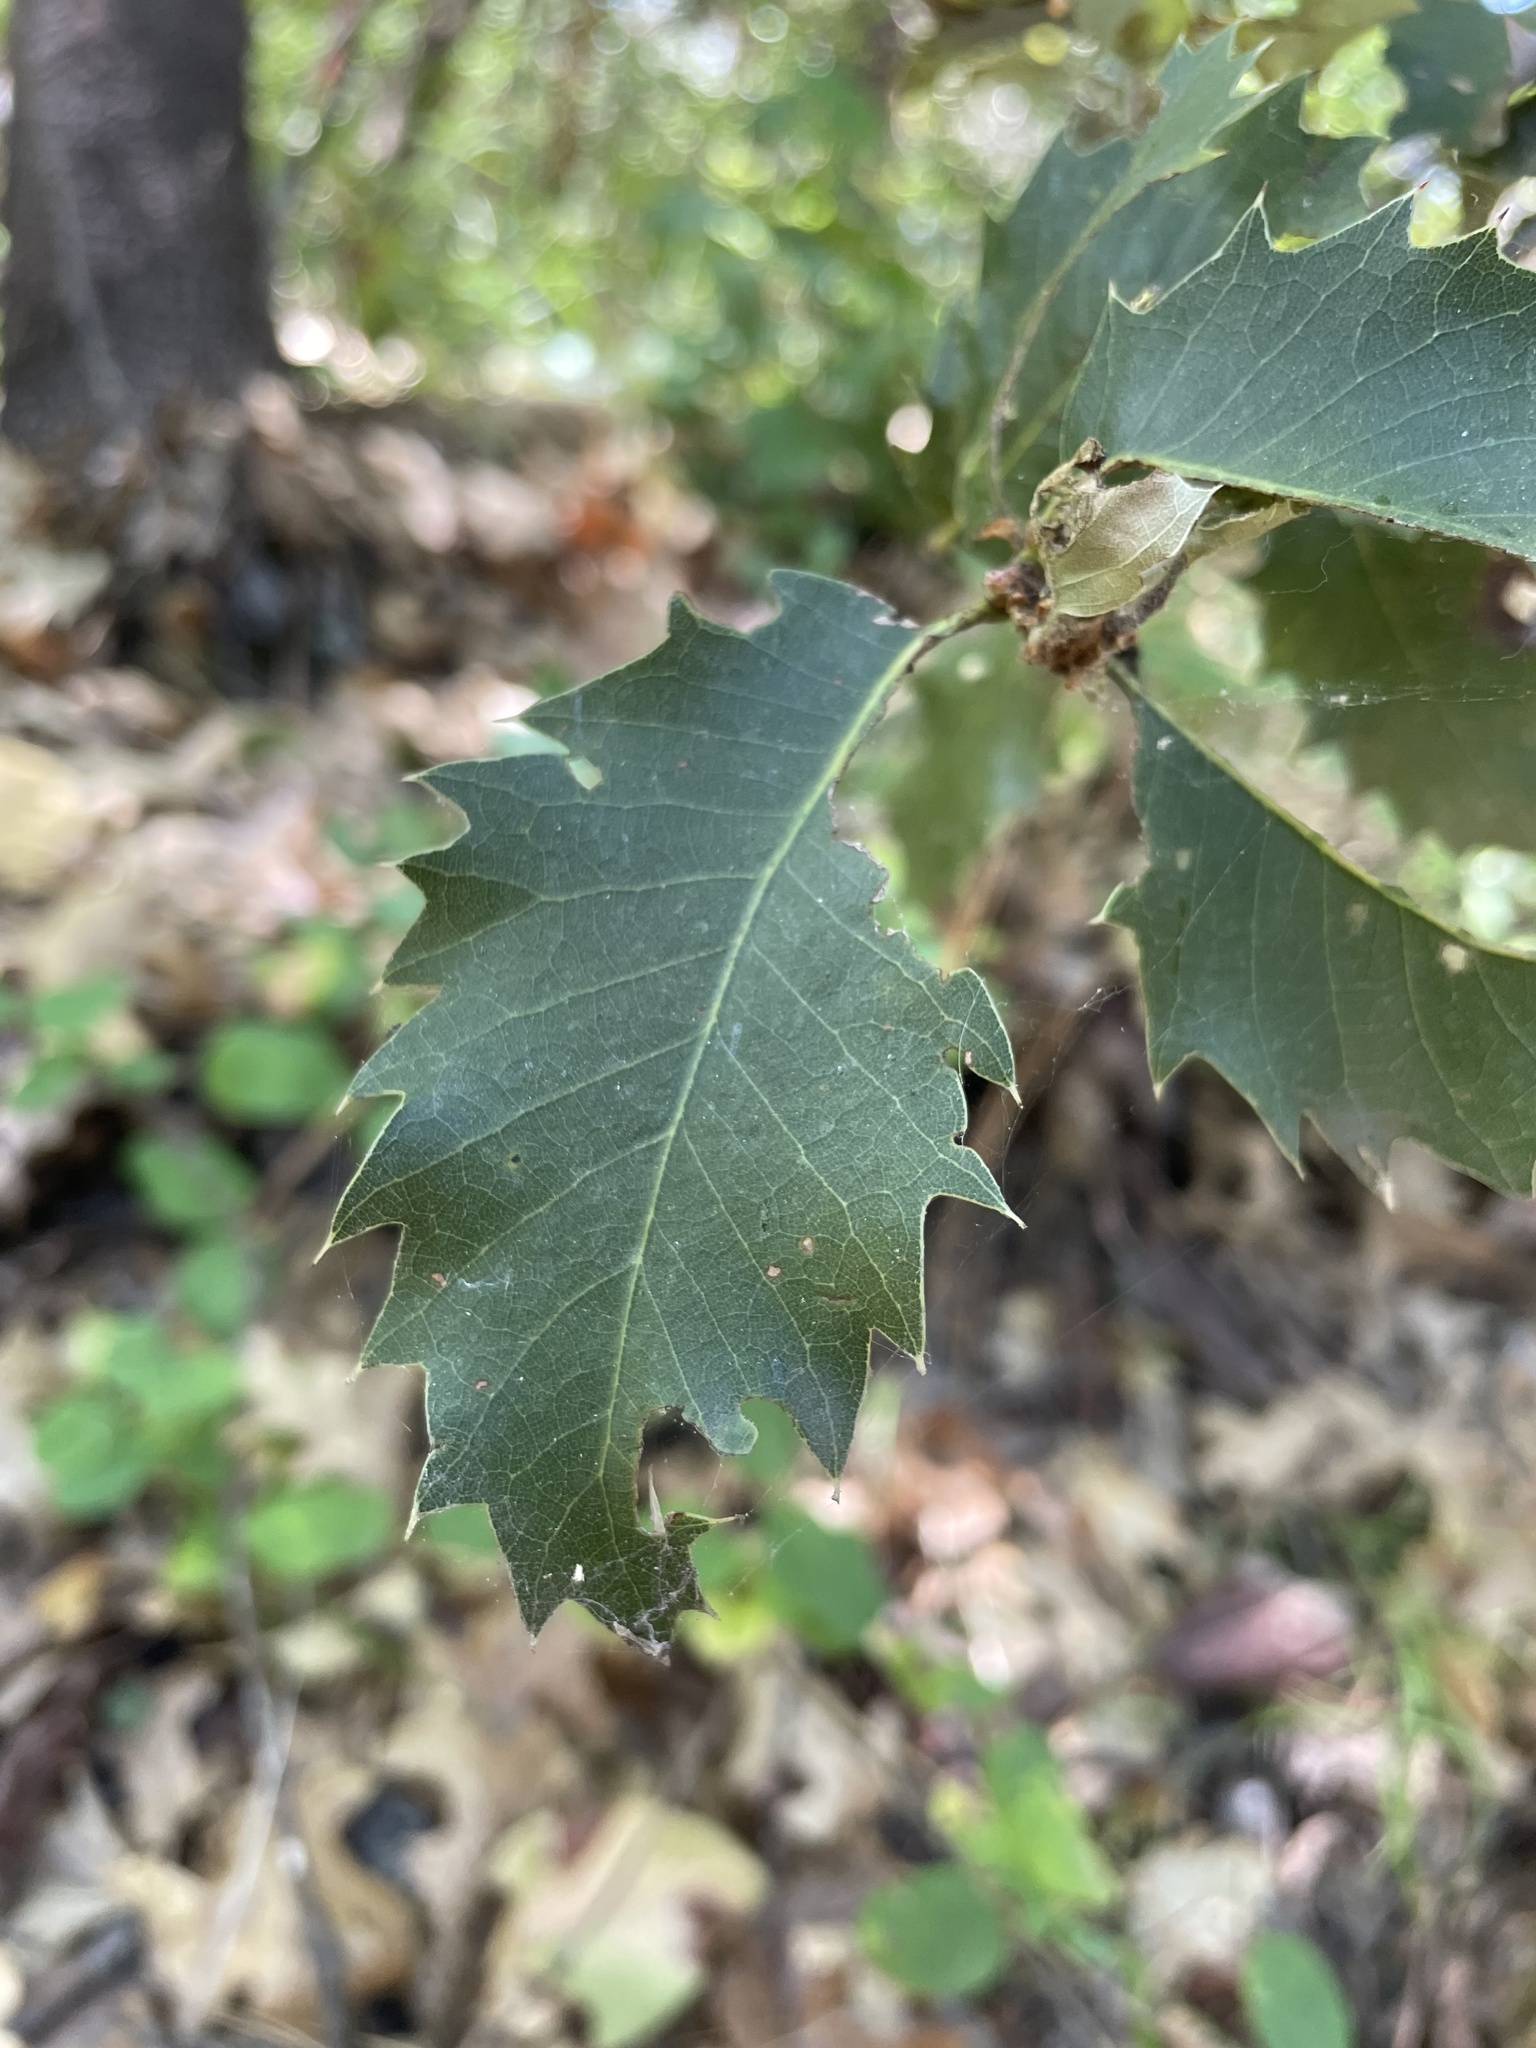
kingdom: Plantae
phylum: Tracheophyta
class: Magnoliopsida
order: Fagales
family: Fagaceae
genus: Quercus
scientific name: Quercus chrysolepis
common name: Canyon live oak
